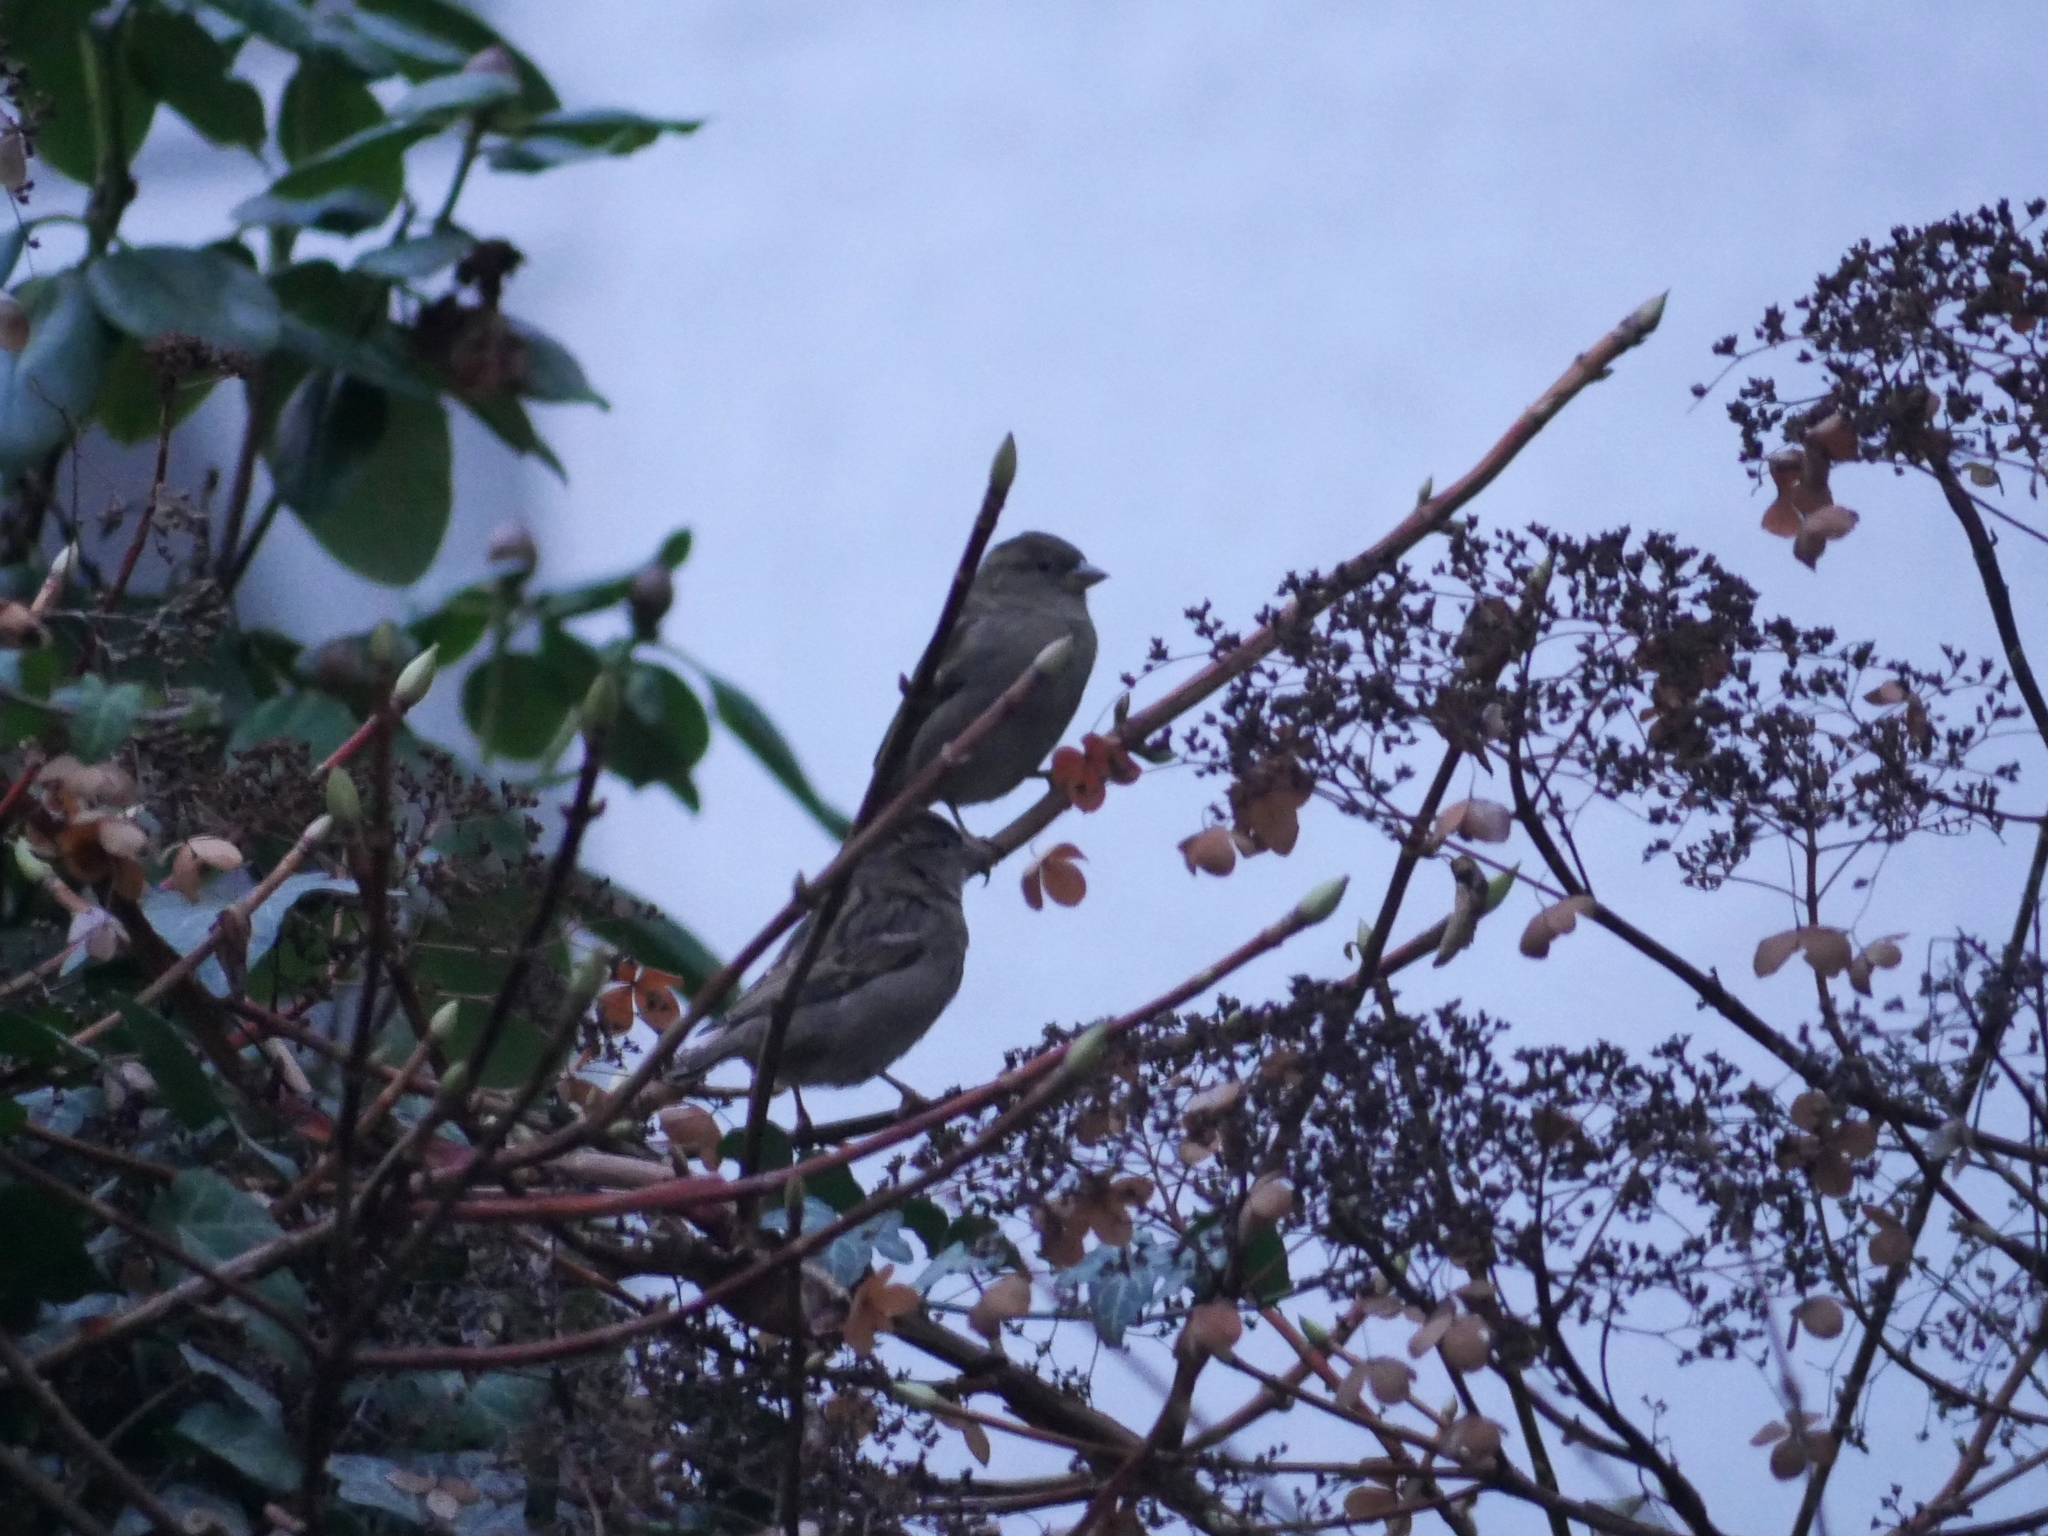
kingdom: Animalia
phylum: Chordata
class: Aves
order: Passeriformes
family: Passeridae
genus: Passer
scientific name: Passer domesticus
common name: House sparrow
